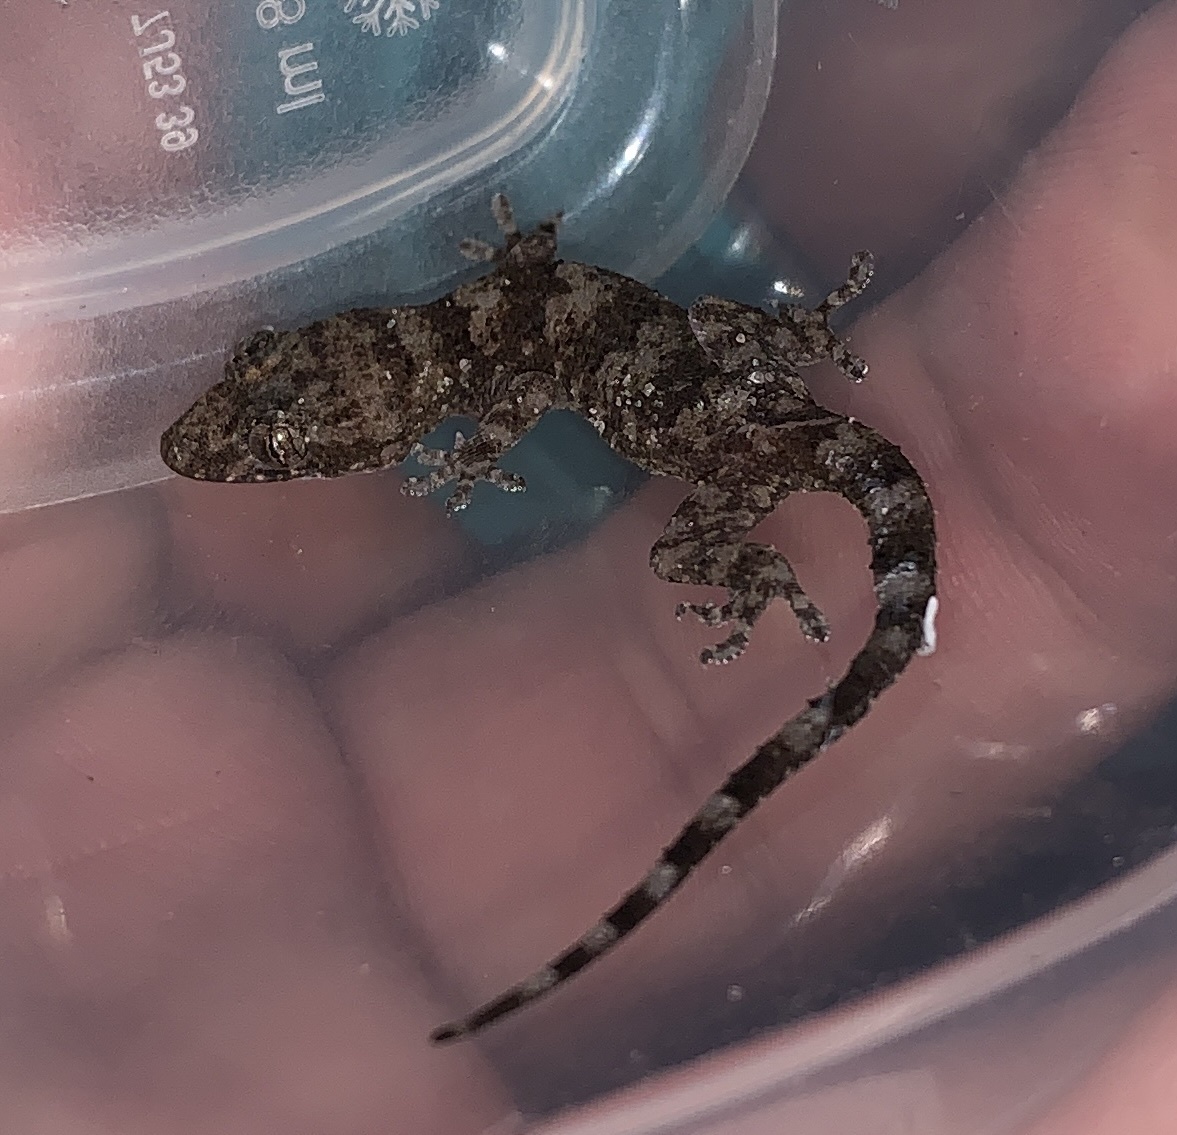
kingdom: Animalia
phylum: Chordata
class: Squamata
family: Gekkonidae
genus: Hemidactylus
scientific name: Hemidactylus mabouia
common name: House gecko
